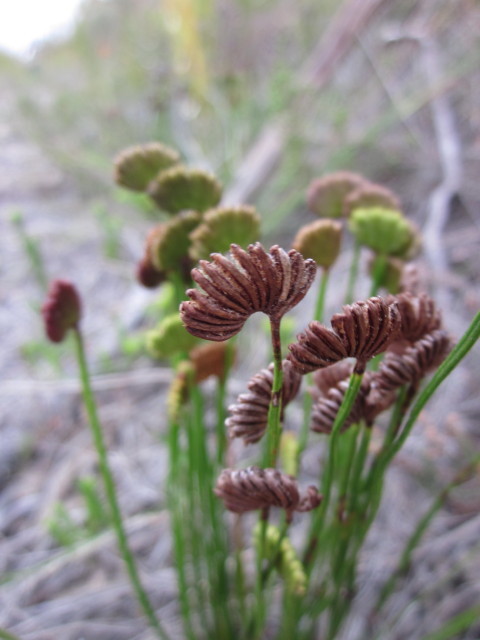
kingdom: Plantae
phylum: Tracheophyta
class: Polypodiopsida
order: Schizaeales
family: Schizaeaceae
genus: Schizaea
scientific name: Schizaea pectinata
